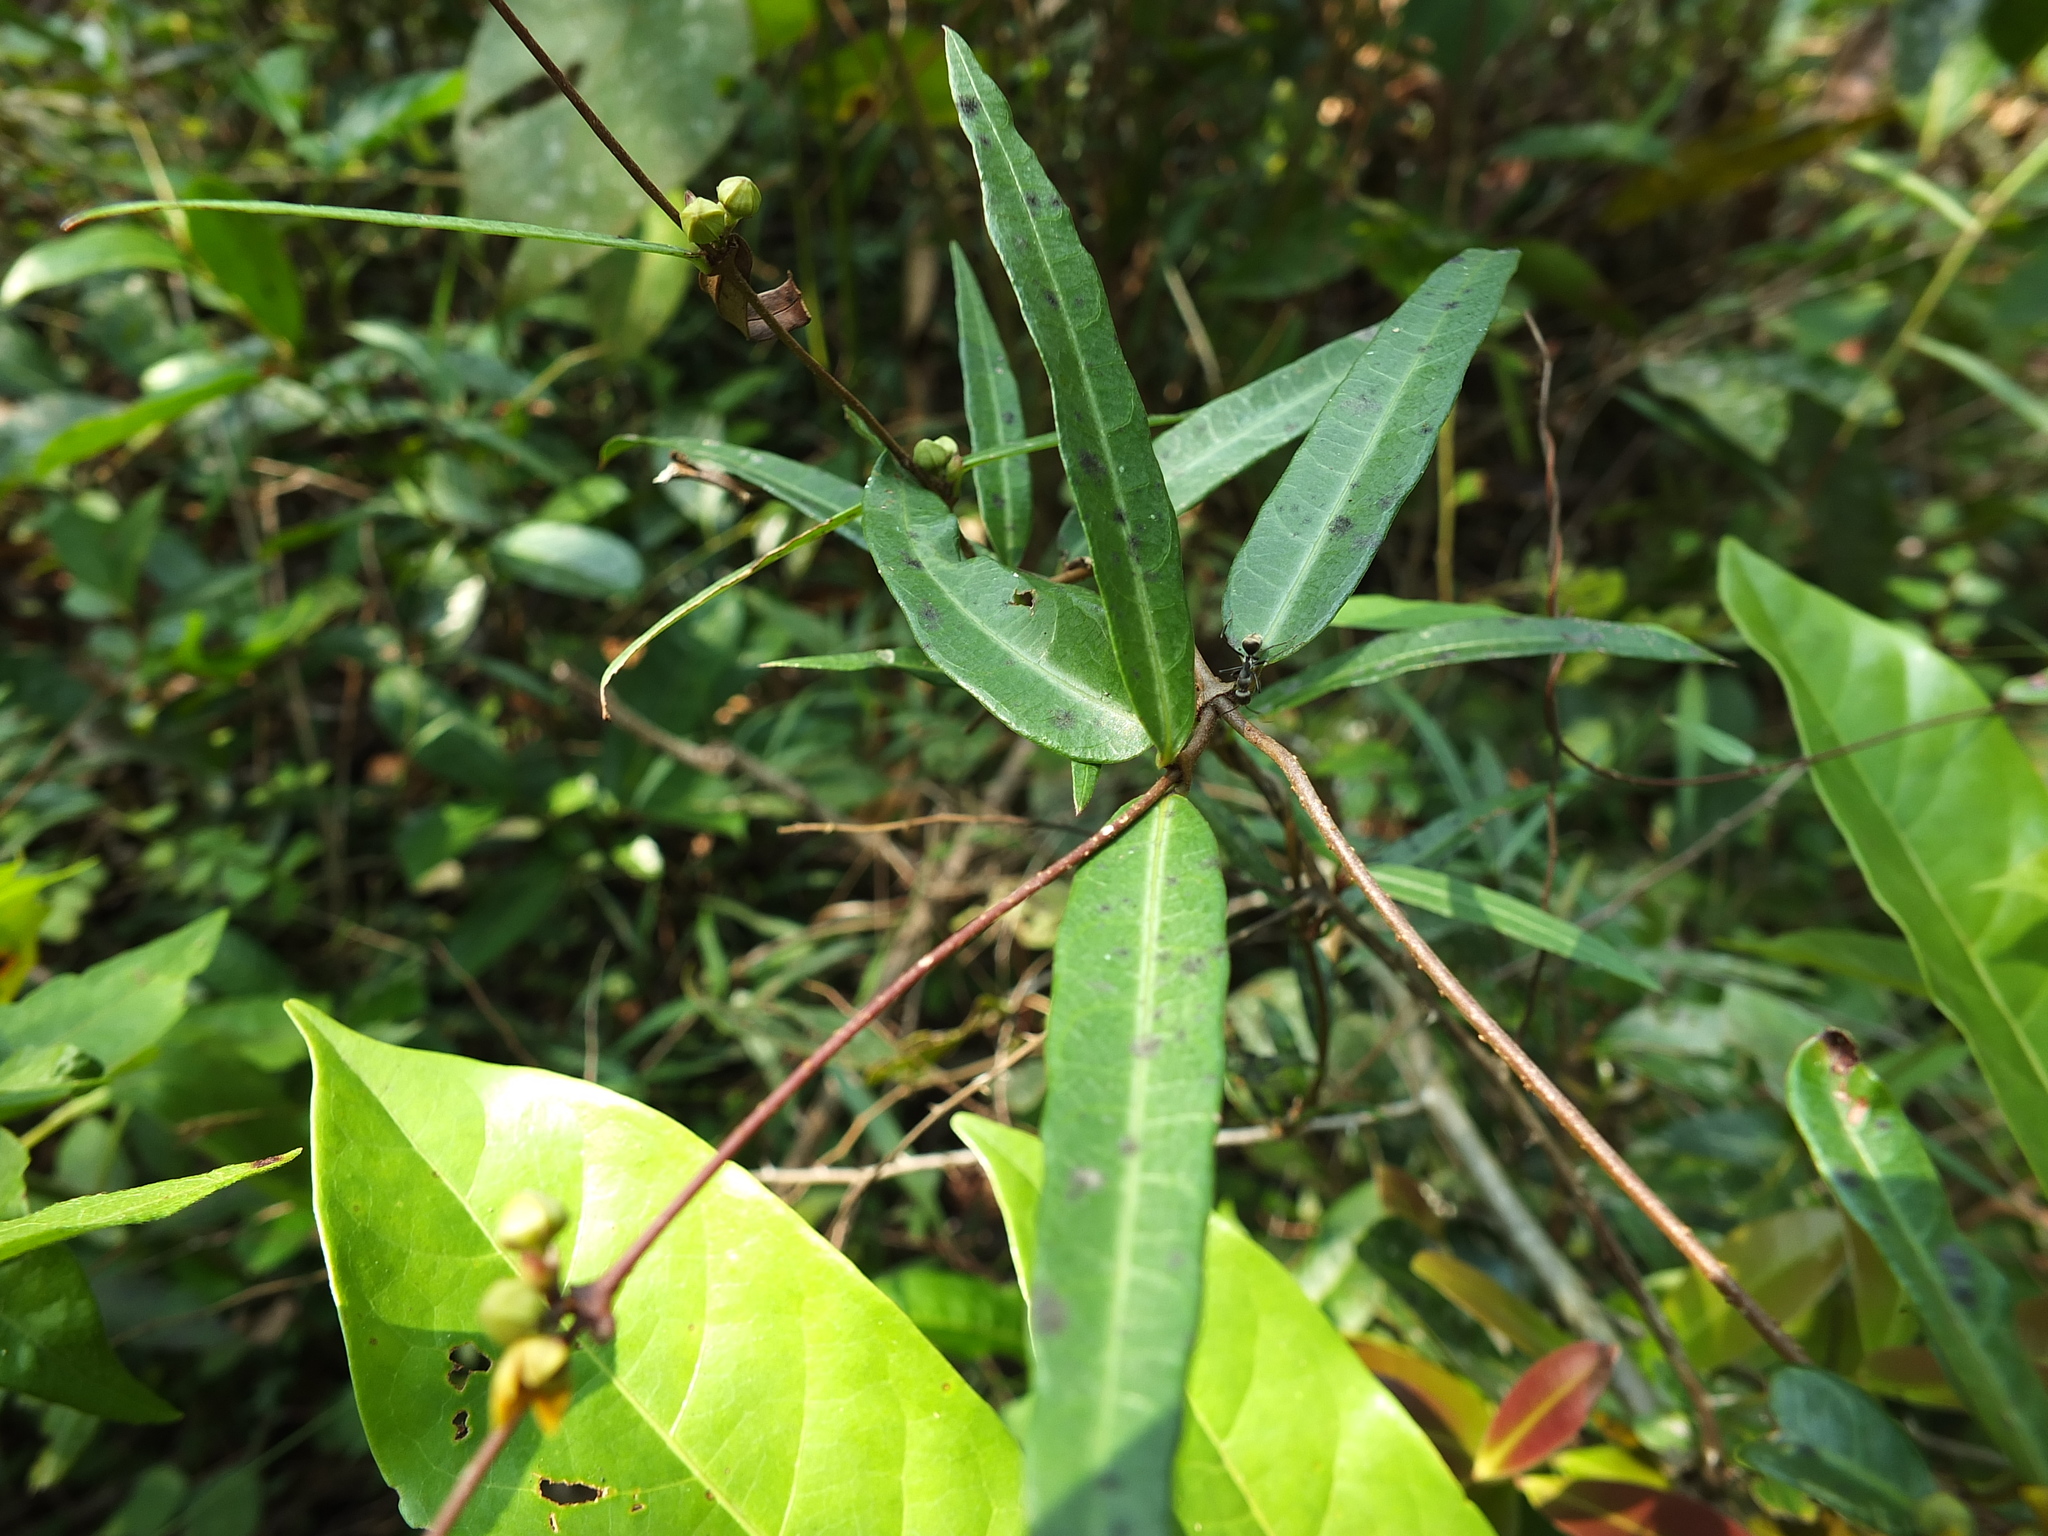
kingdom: Plantae
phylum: Tracheophyta
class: Magnoliopsida
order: Gentianales
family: Apocynaceae
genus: Hemidesmus
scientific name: Hemidesmus indicus
